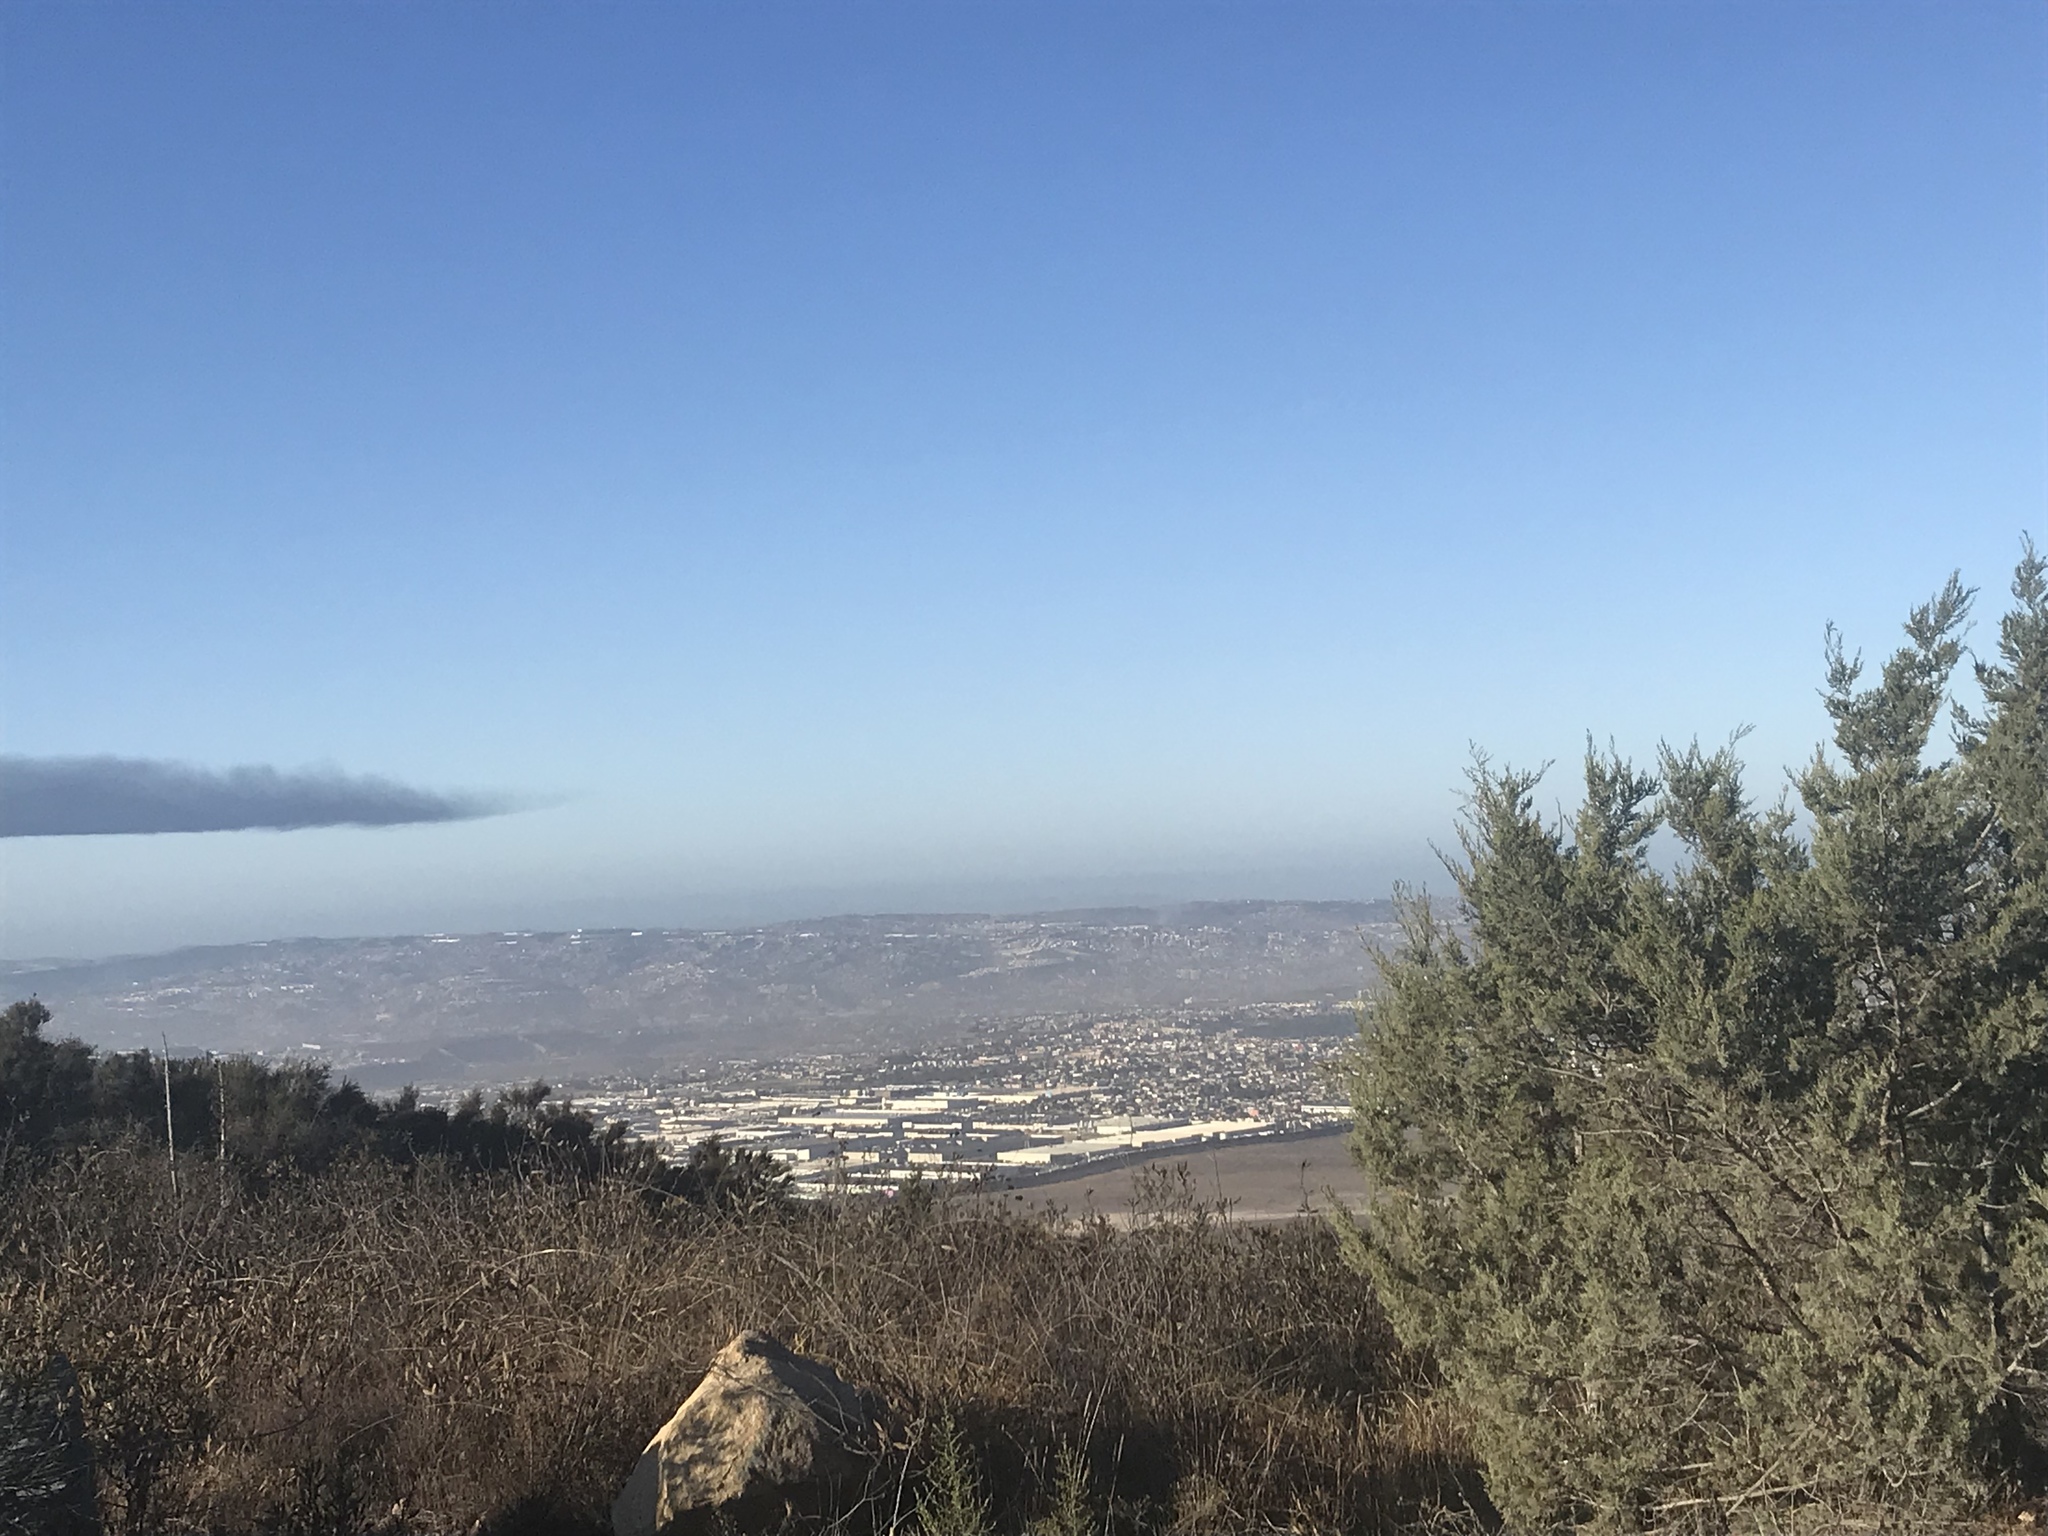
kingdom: Plantae
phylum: Tracheophyta
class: Pinopsida
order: Pinales
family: Cupressaceae
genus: Cupressus
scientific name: Cupressus guadalupensis
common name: Forbes cypress
